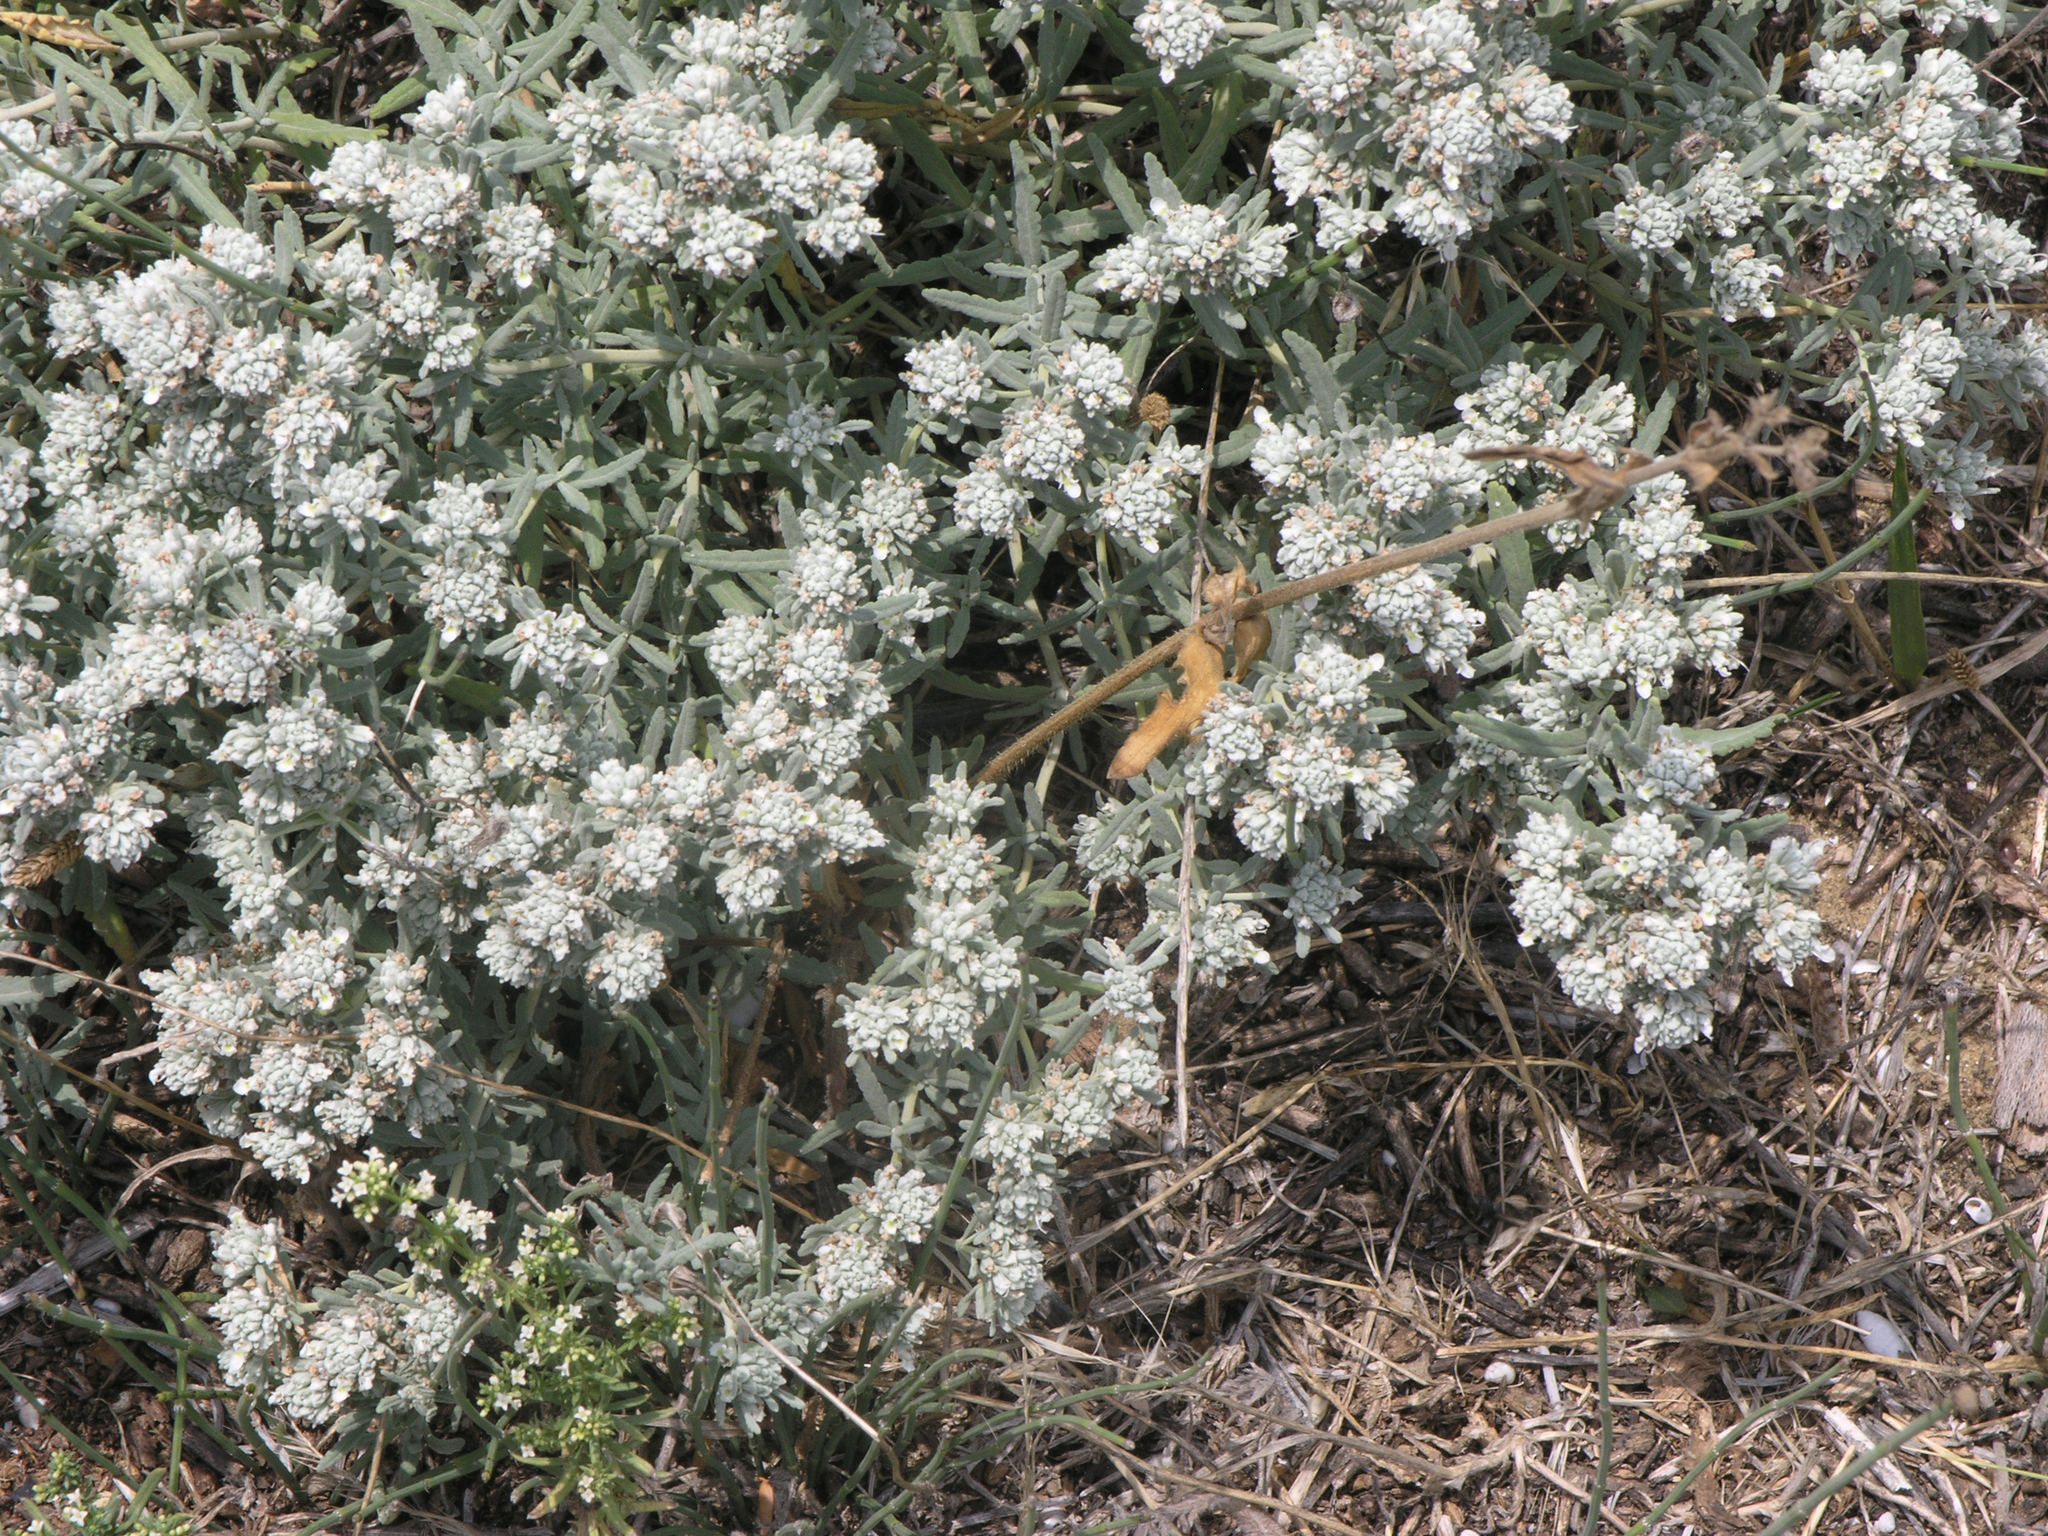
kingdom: Plantae
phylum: Tracheophyta
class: Magnoliopsida
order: Lamiales
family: Lamiaceae
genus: Teucrium
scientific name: Teucrium polium
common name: Poley
